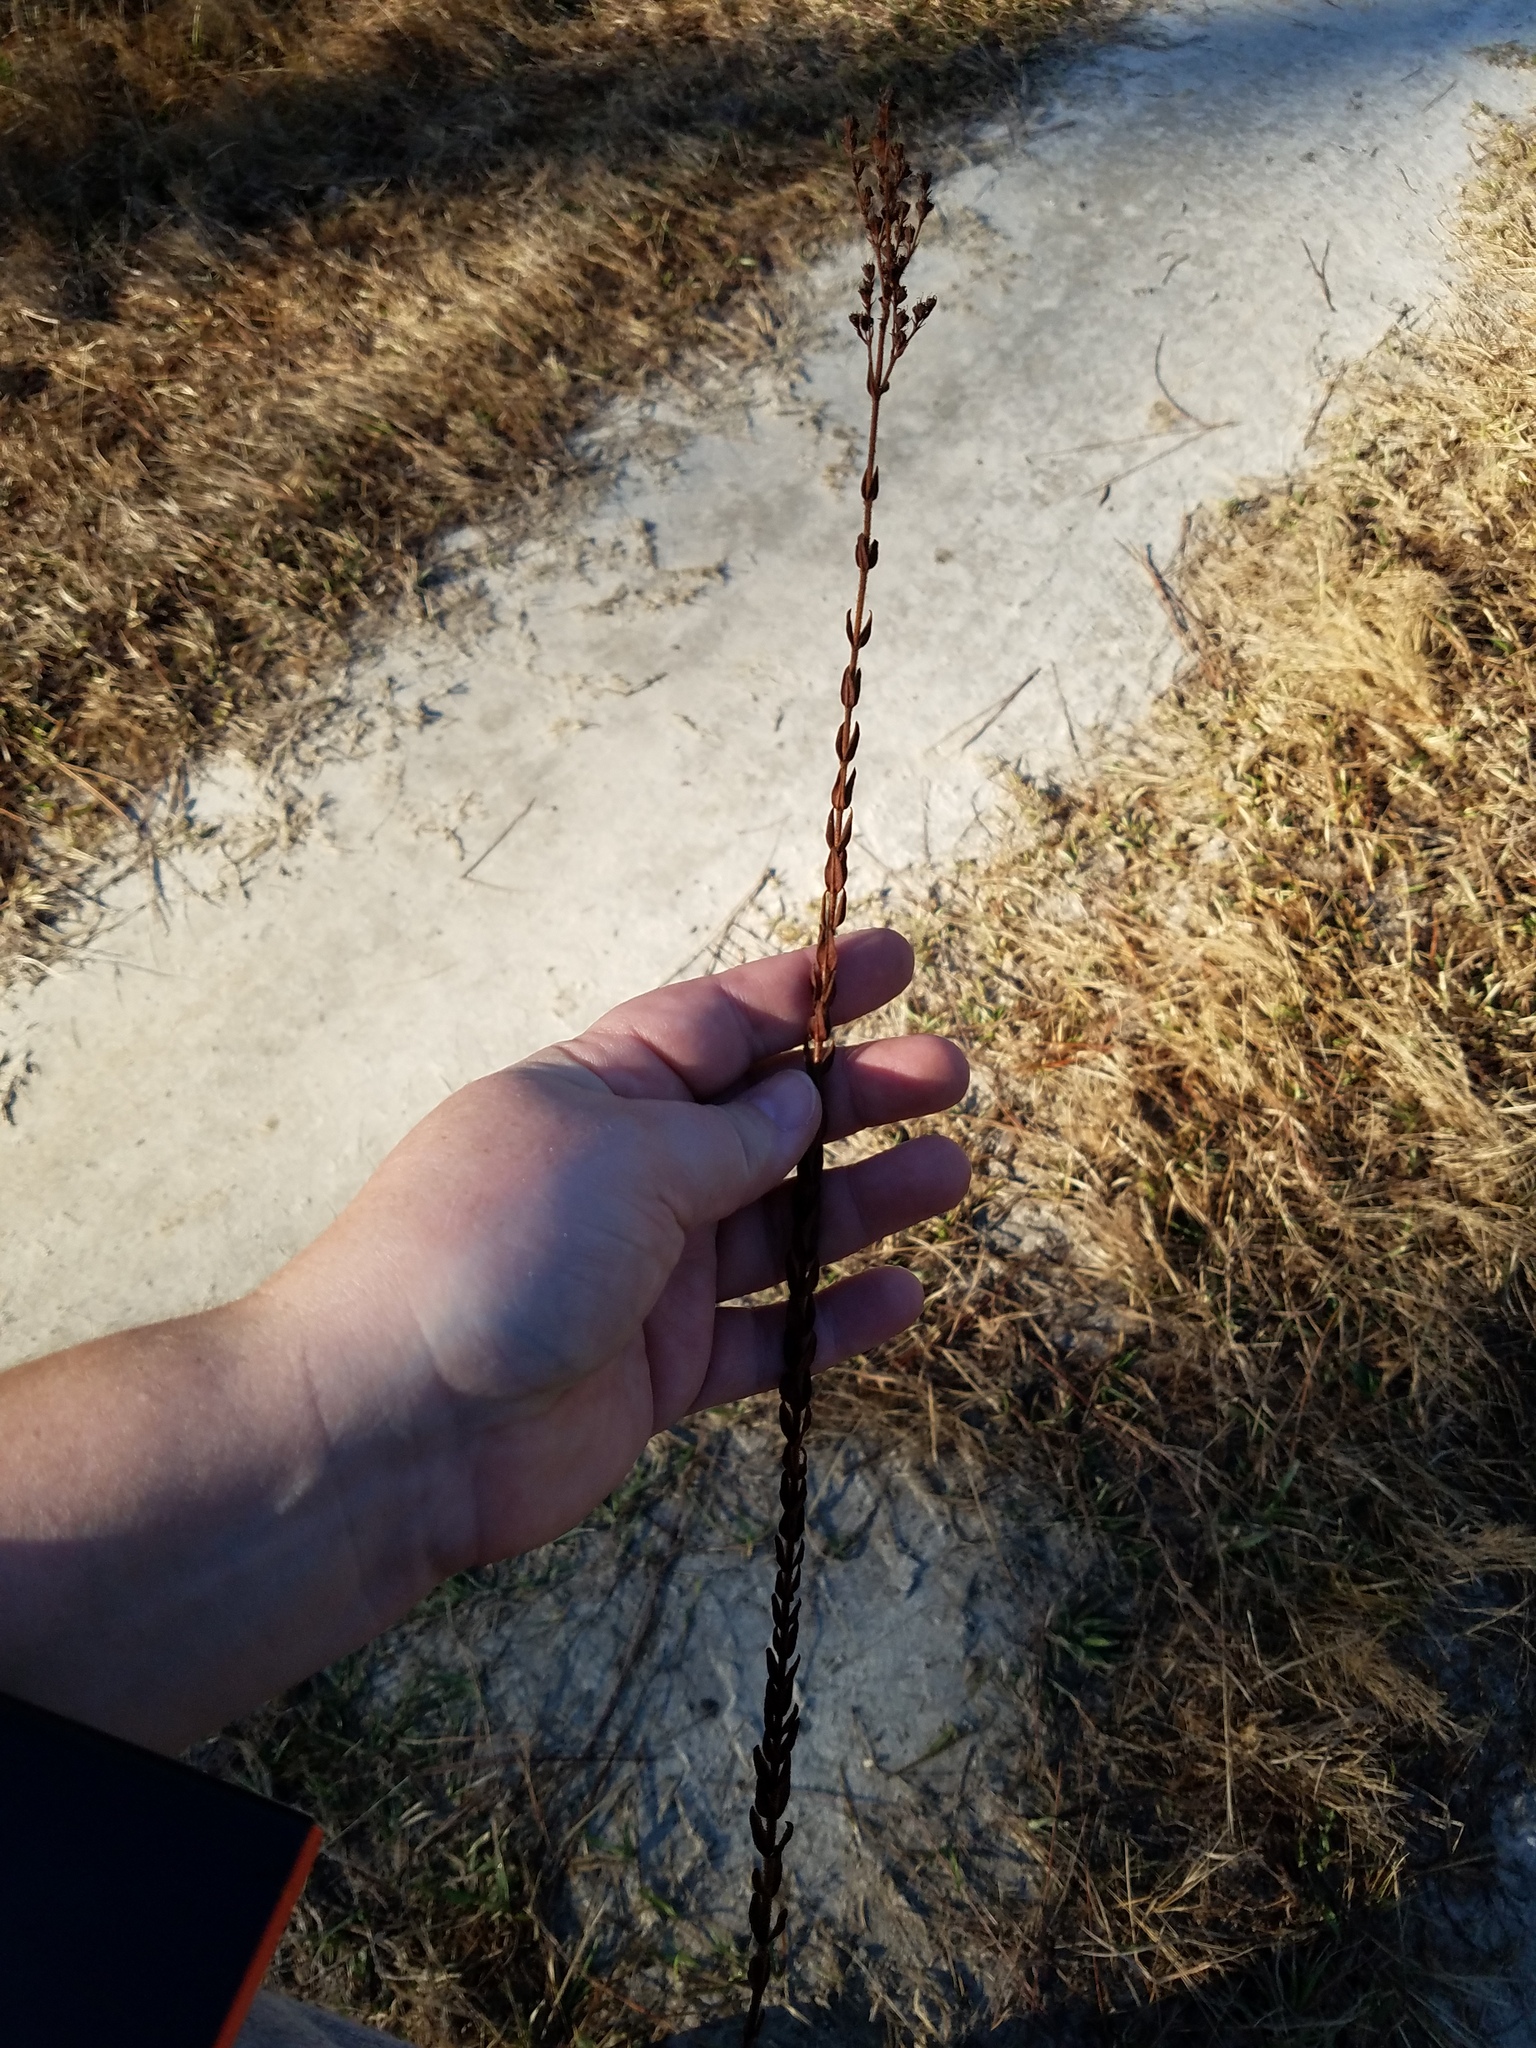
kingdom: Plantae
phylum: Tracheophyta
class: Magnoliopsida
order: Malpighiales
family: Hypericaceae
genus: Hypericum
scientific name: Hypericum setosum
